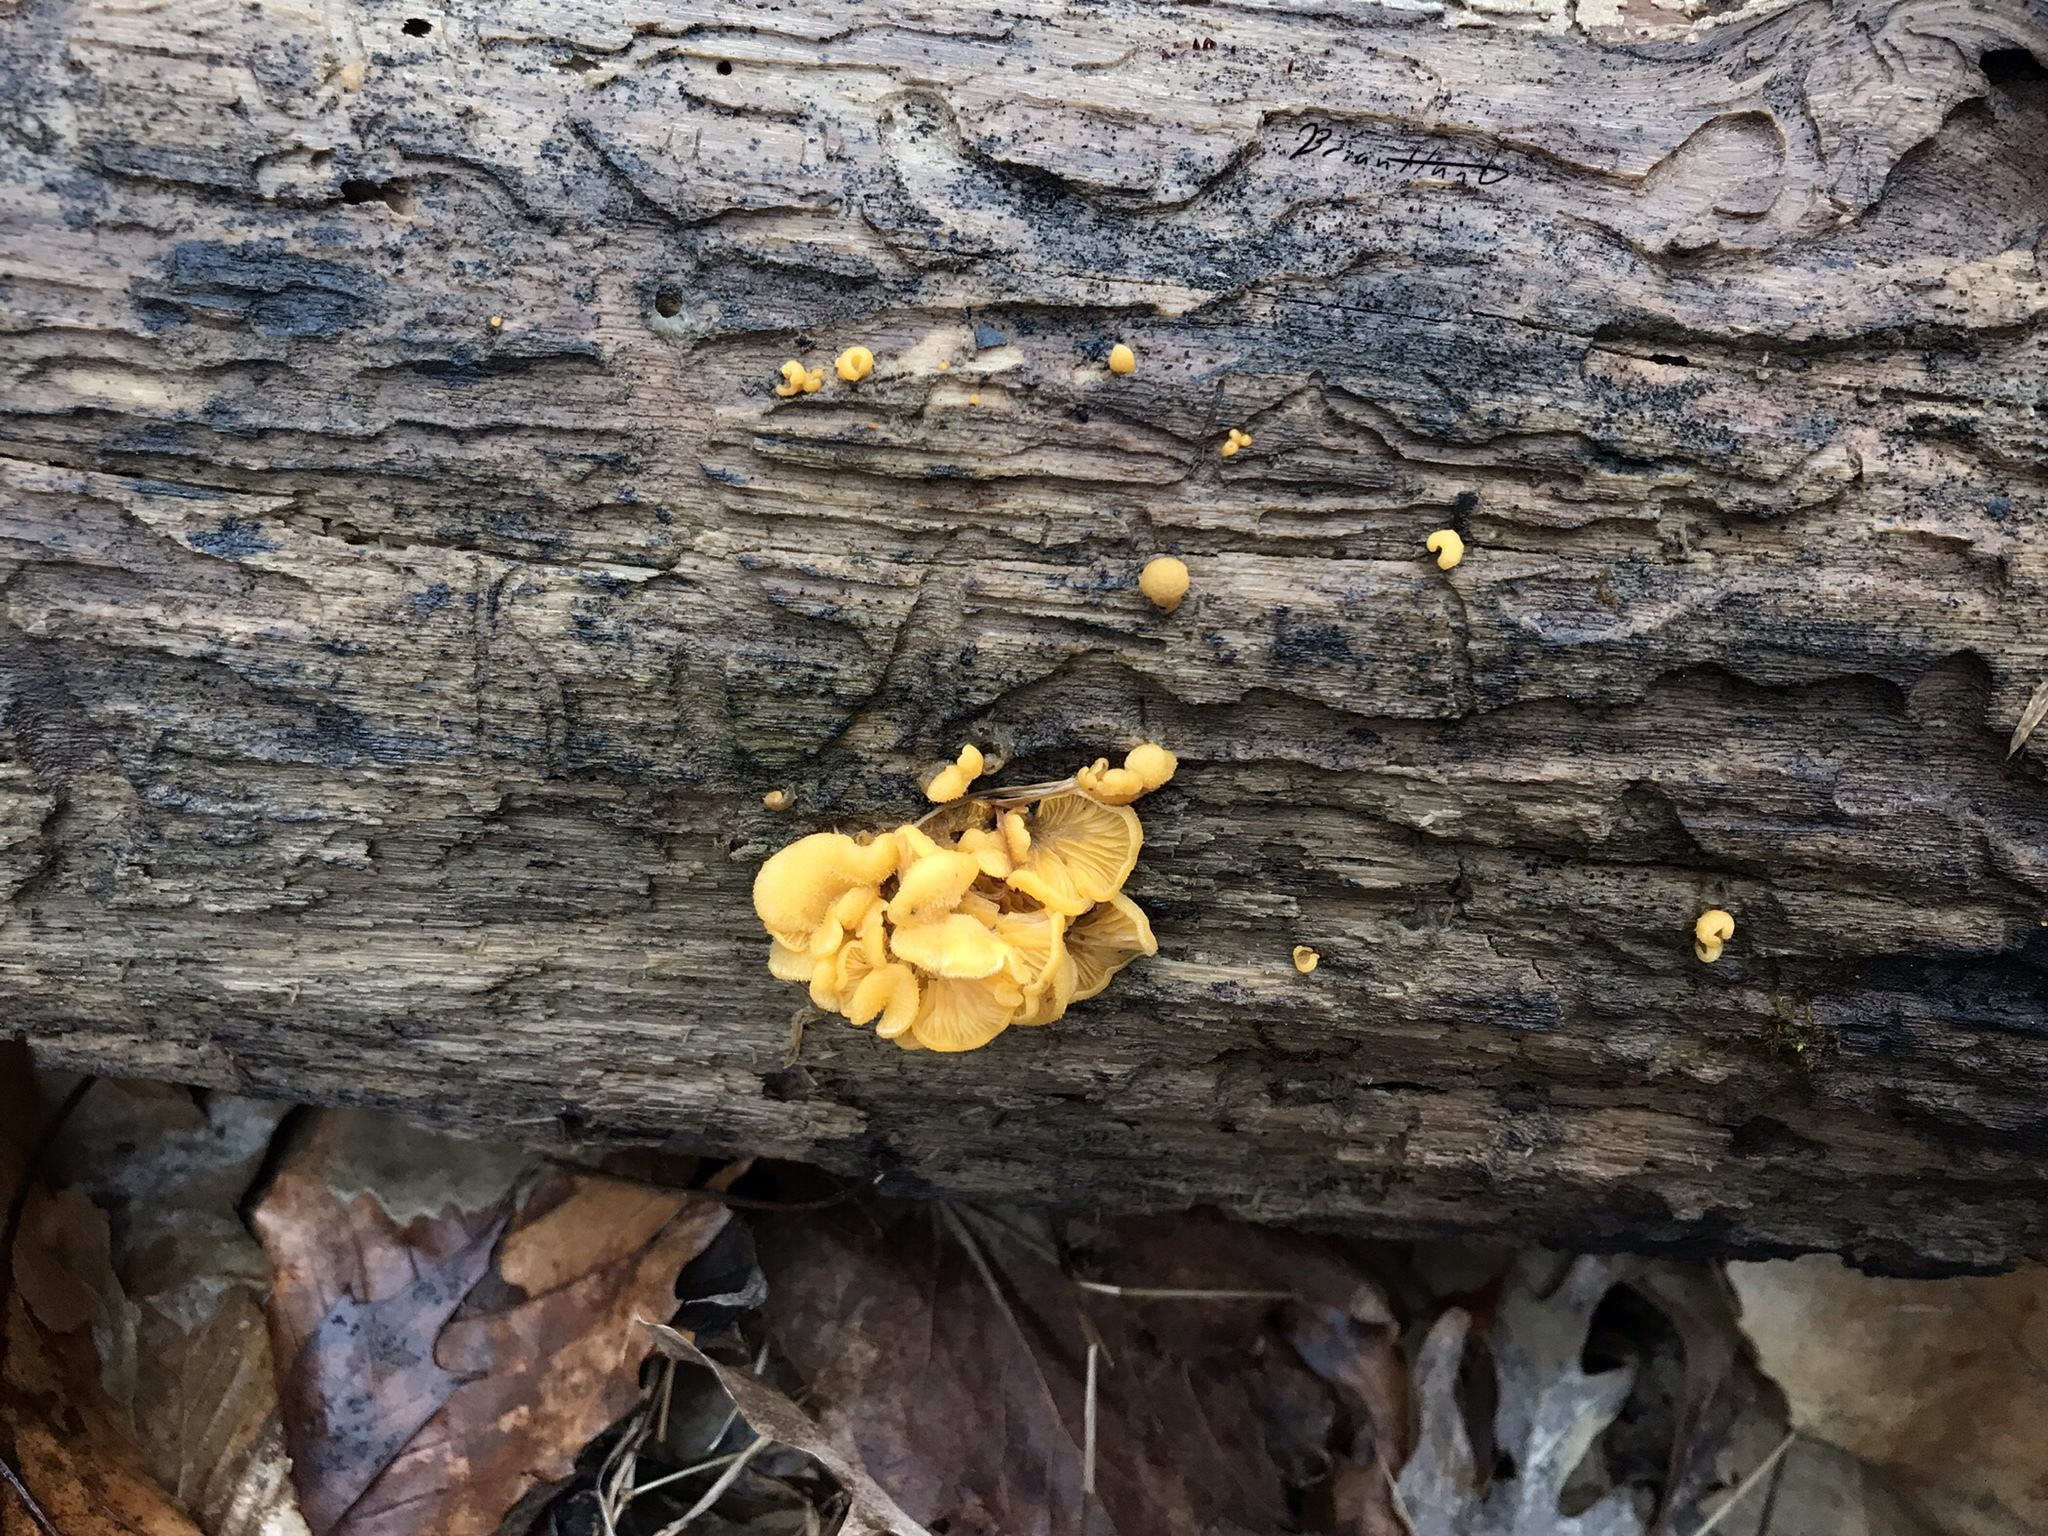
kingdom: Fungi
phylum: Basidiomycota
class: Agaricomycetes
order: Agaricales
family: Phyllotopsidaceae
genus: Phyllotopsis
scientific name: Phyllotopsis nidulans
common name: Orange mock oyster
